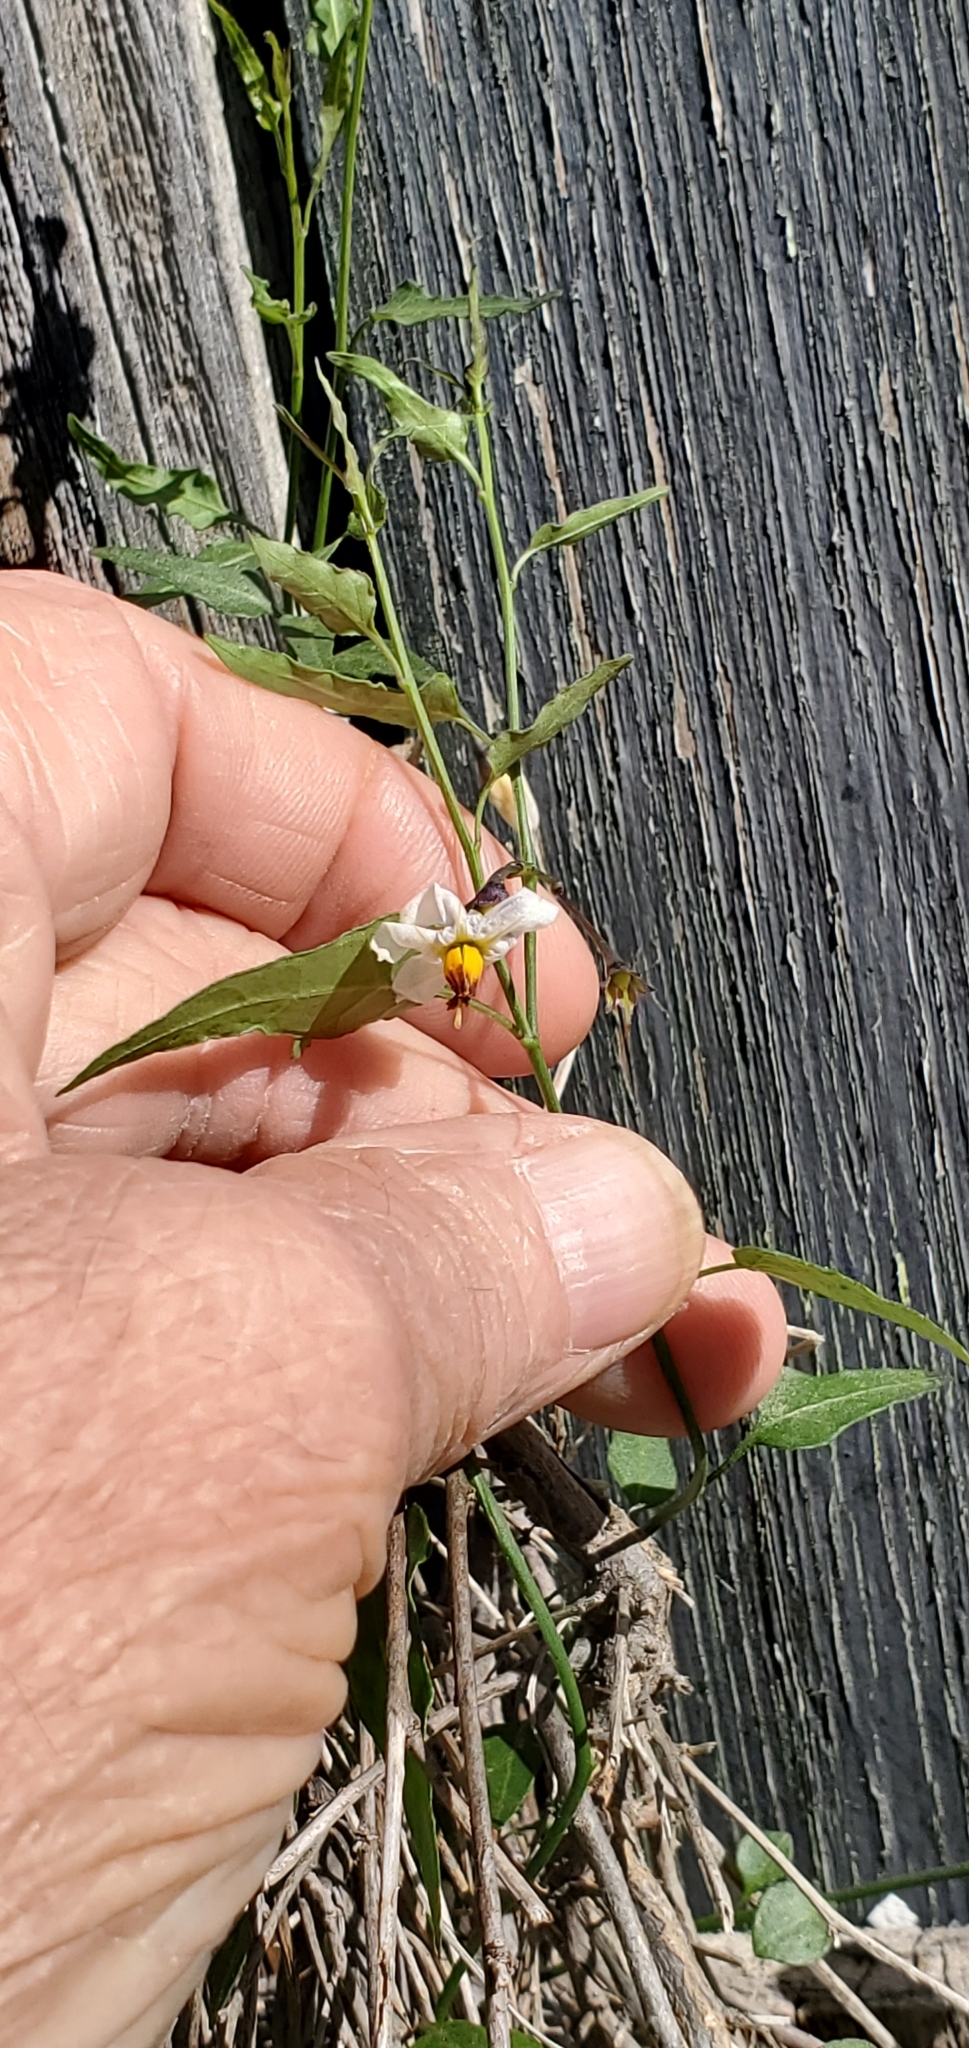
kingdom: Plantae
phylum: Tracheophyta
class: Magnoliopsida
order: Solanales
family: Solanaceae
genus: Solanum
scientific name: Solanum triquetrum
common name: Texas nightshade
